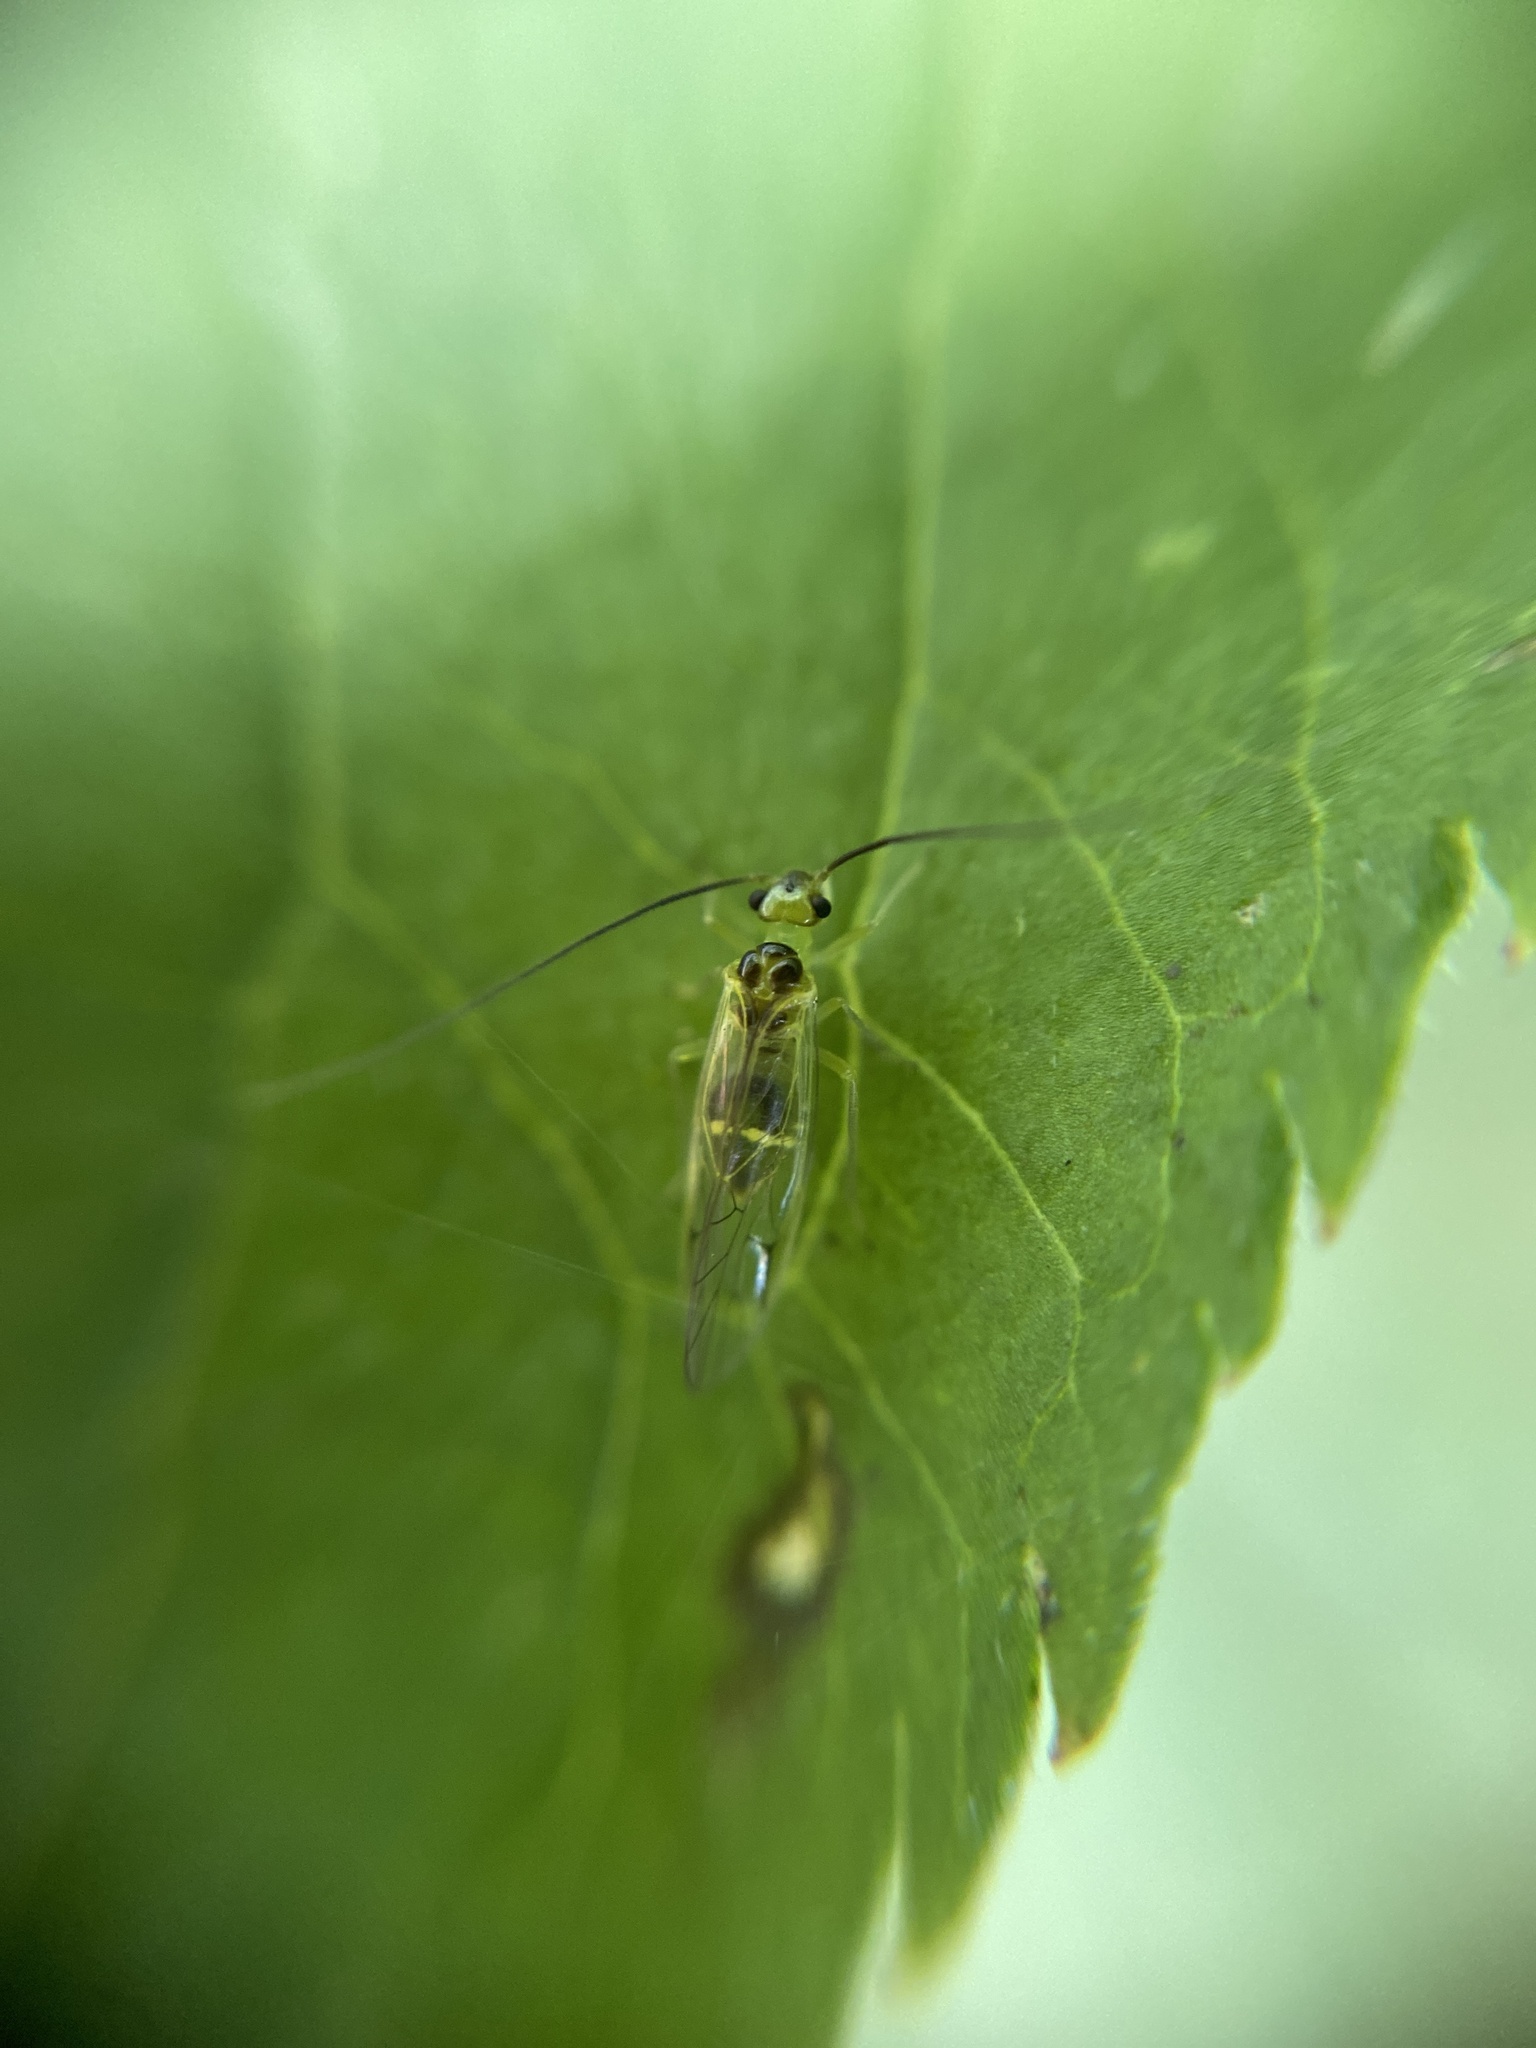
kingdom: Animalia
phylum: Arthropoda
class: Insecta
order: Psocodea
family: Stenopsocidae
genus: Stenopsocus
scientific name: Stenopsocus stigmaticus
